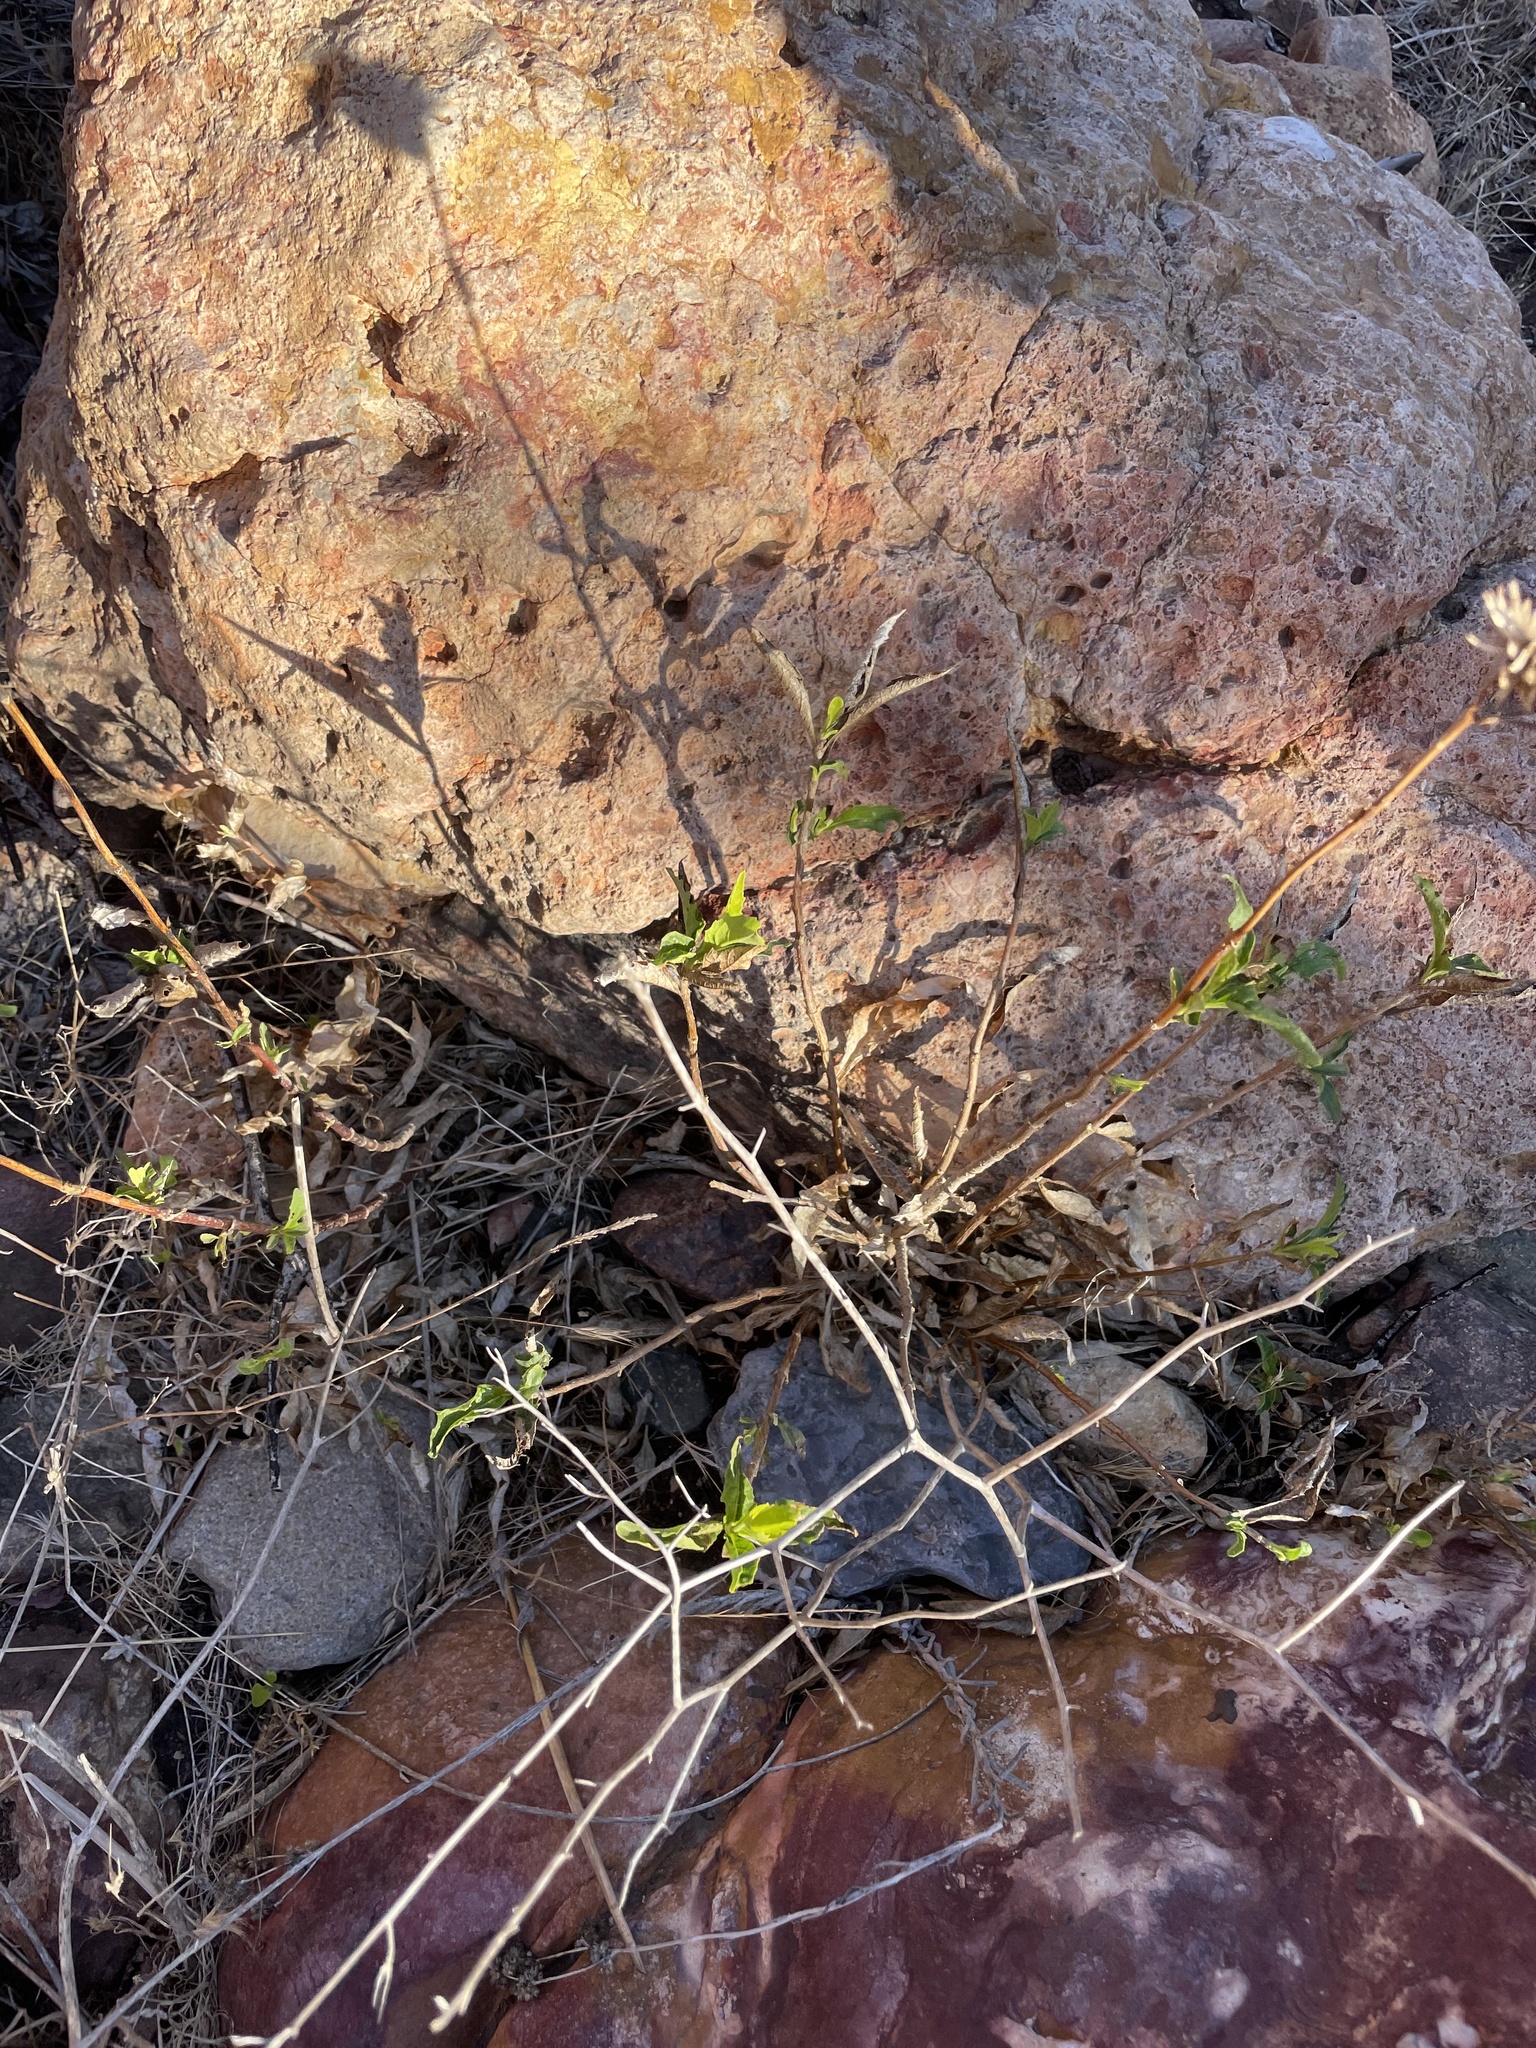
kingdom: Plantae
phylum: Tracheophyta
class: Magnoliopsida
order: Asterales
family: Asteraceae
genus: Verbesina
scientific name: Verbesina dissita
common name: Big-leaf crownbeard
